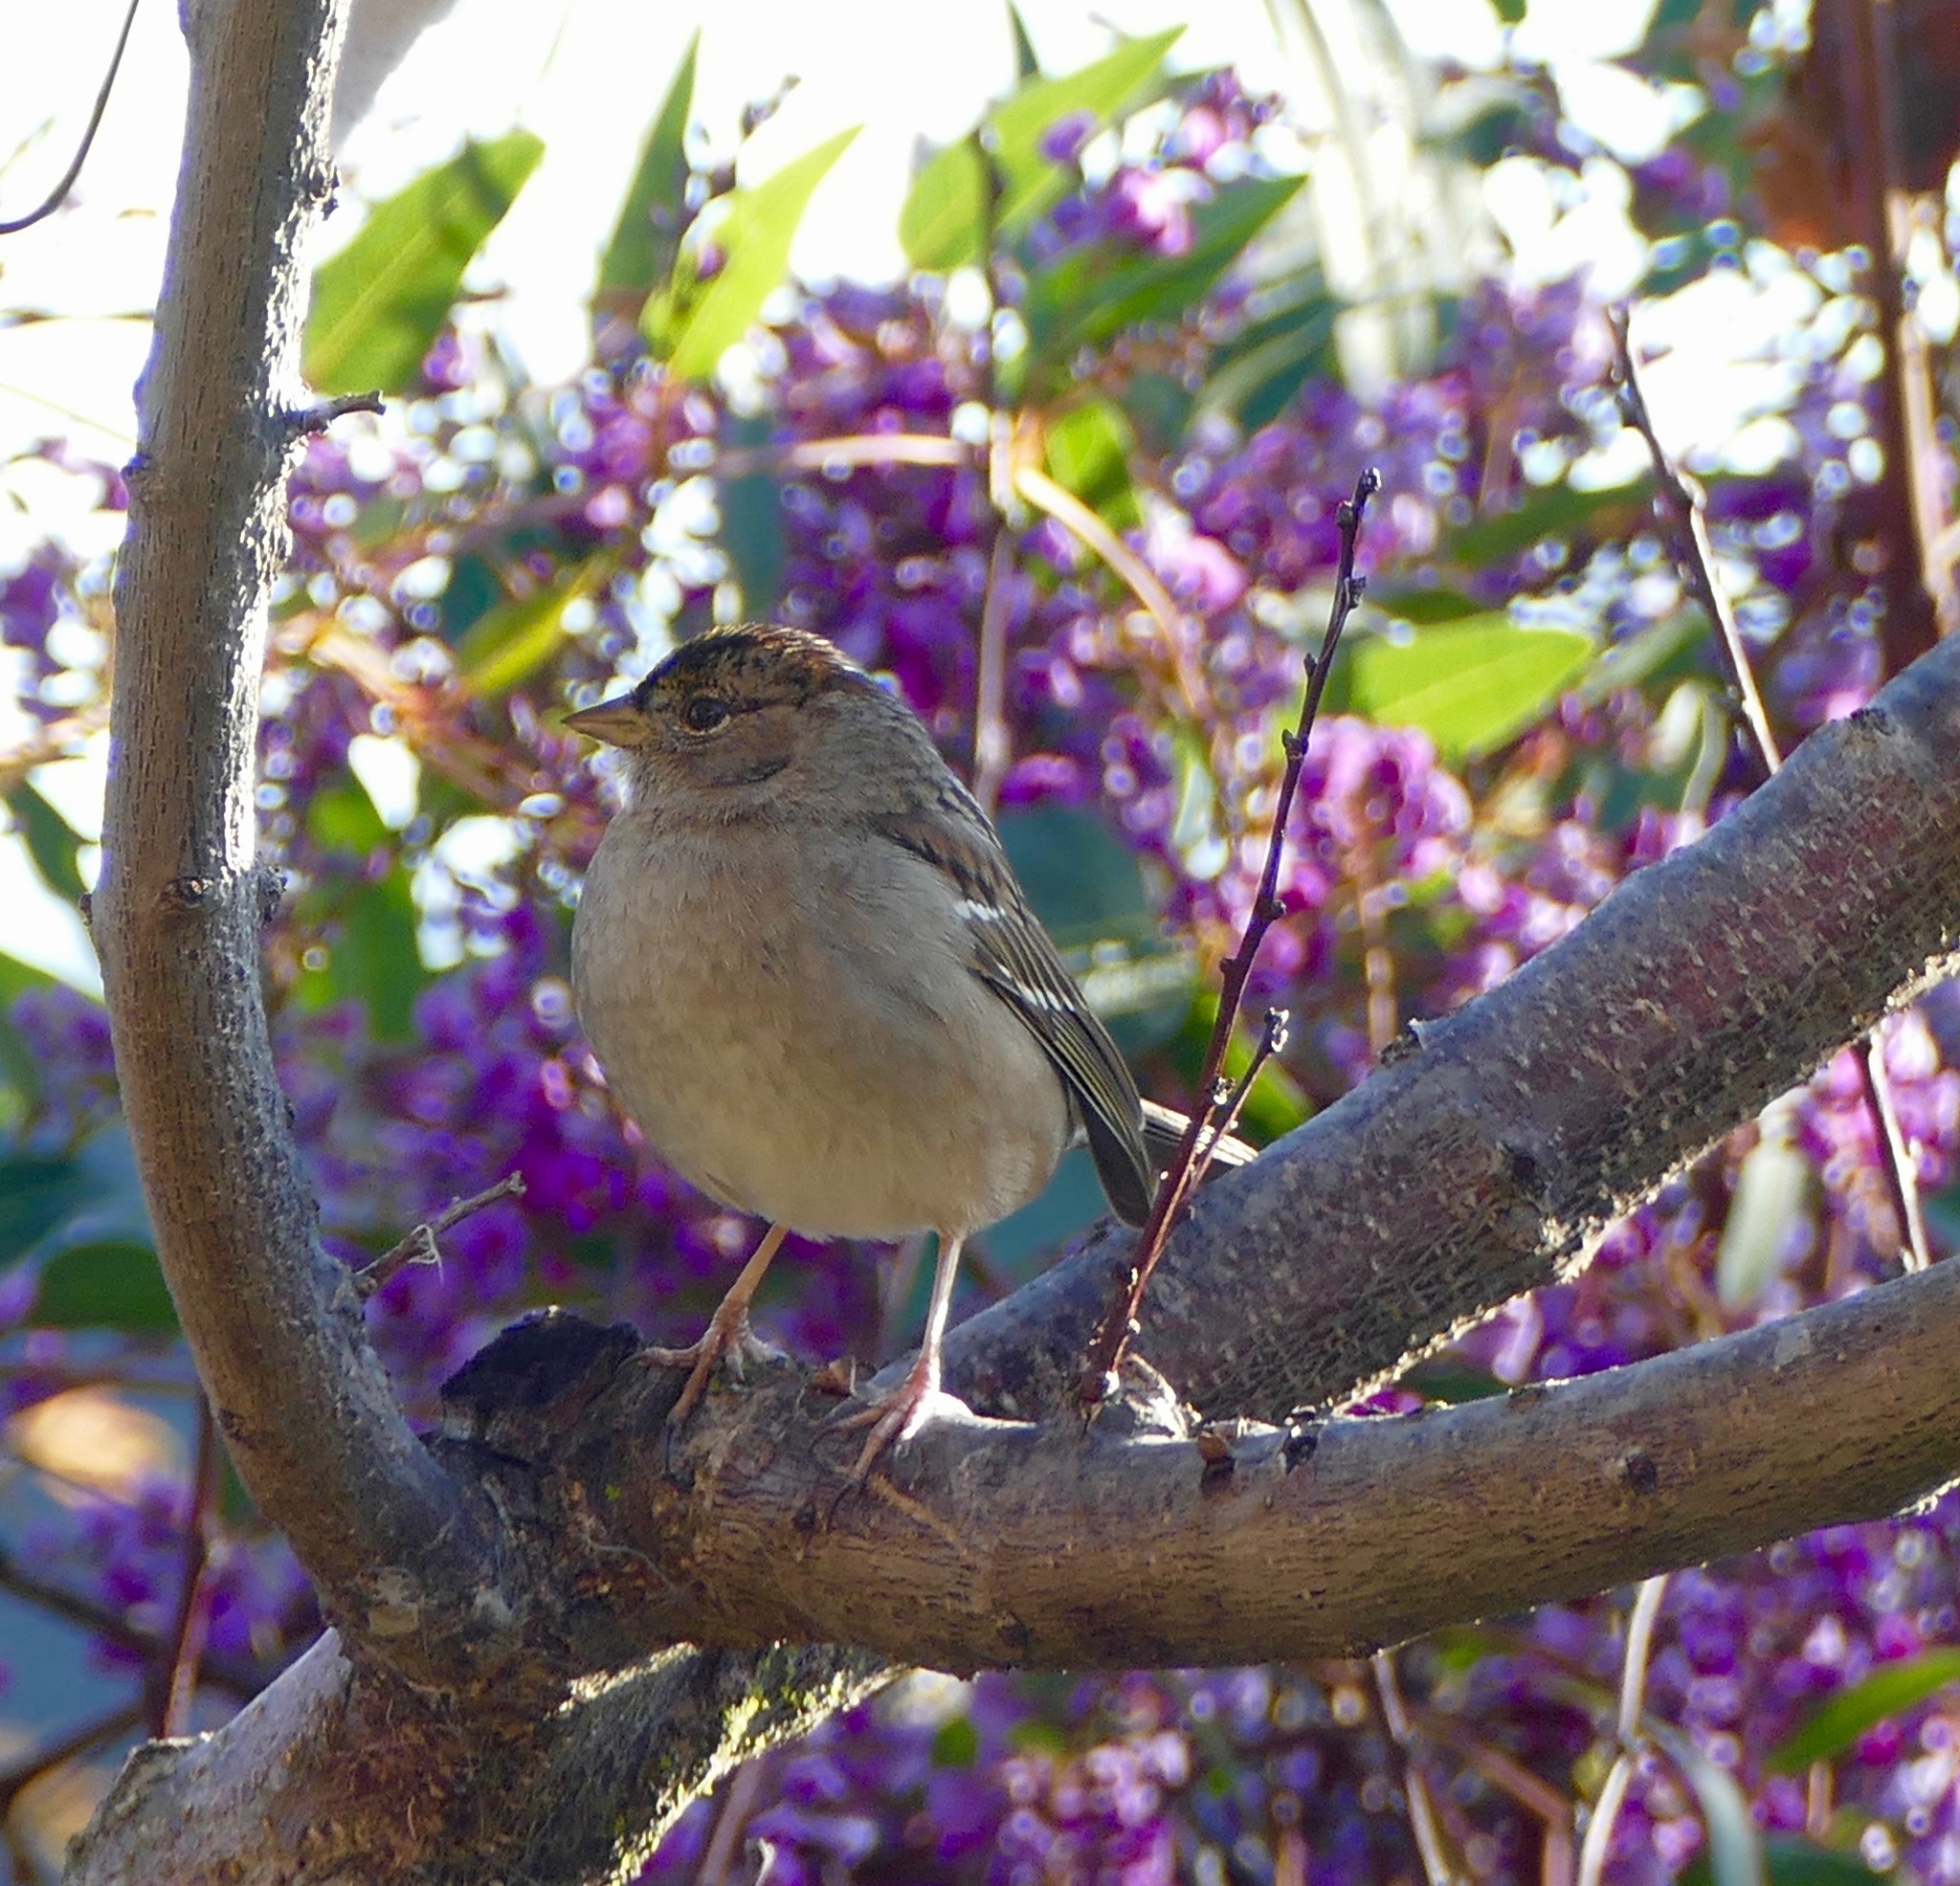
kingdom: Animalia
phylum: Chordata
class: Aves
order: Passeriformes
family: Passerellidae
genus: Zonotrichia
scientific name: Zonotrichia atricapilla
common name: Golden-crowned sparrow
